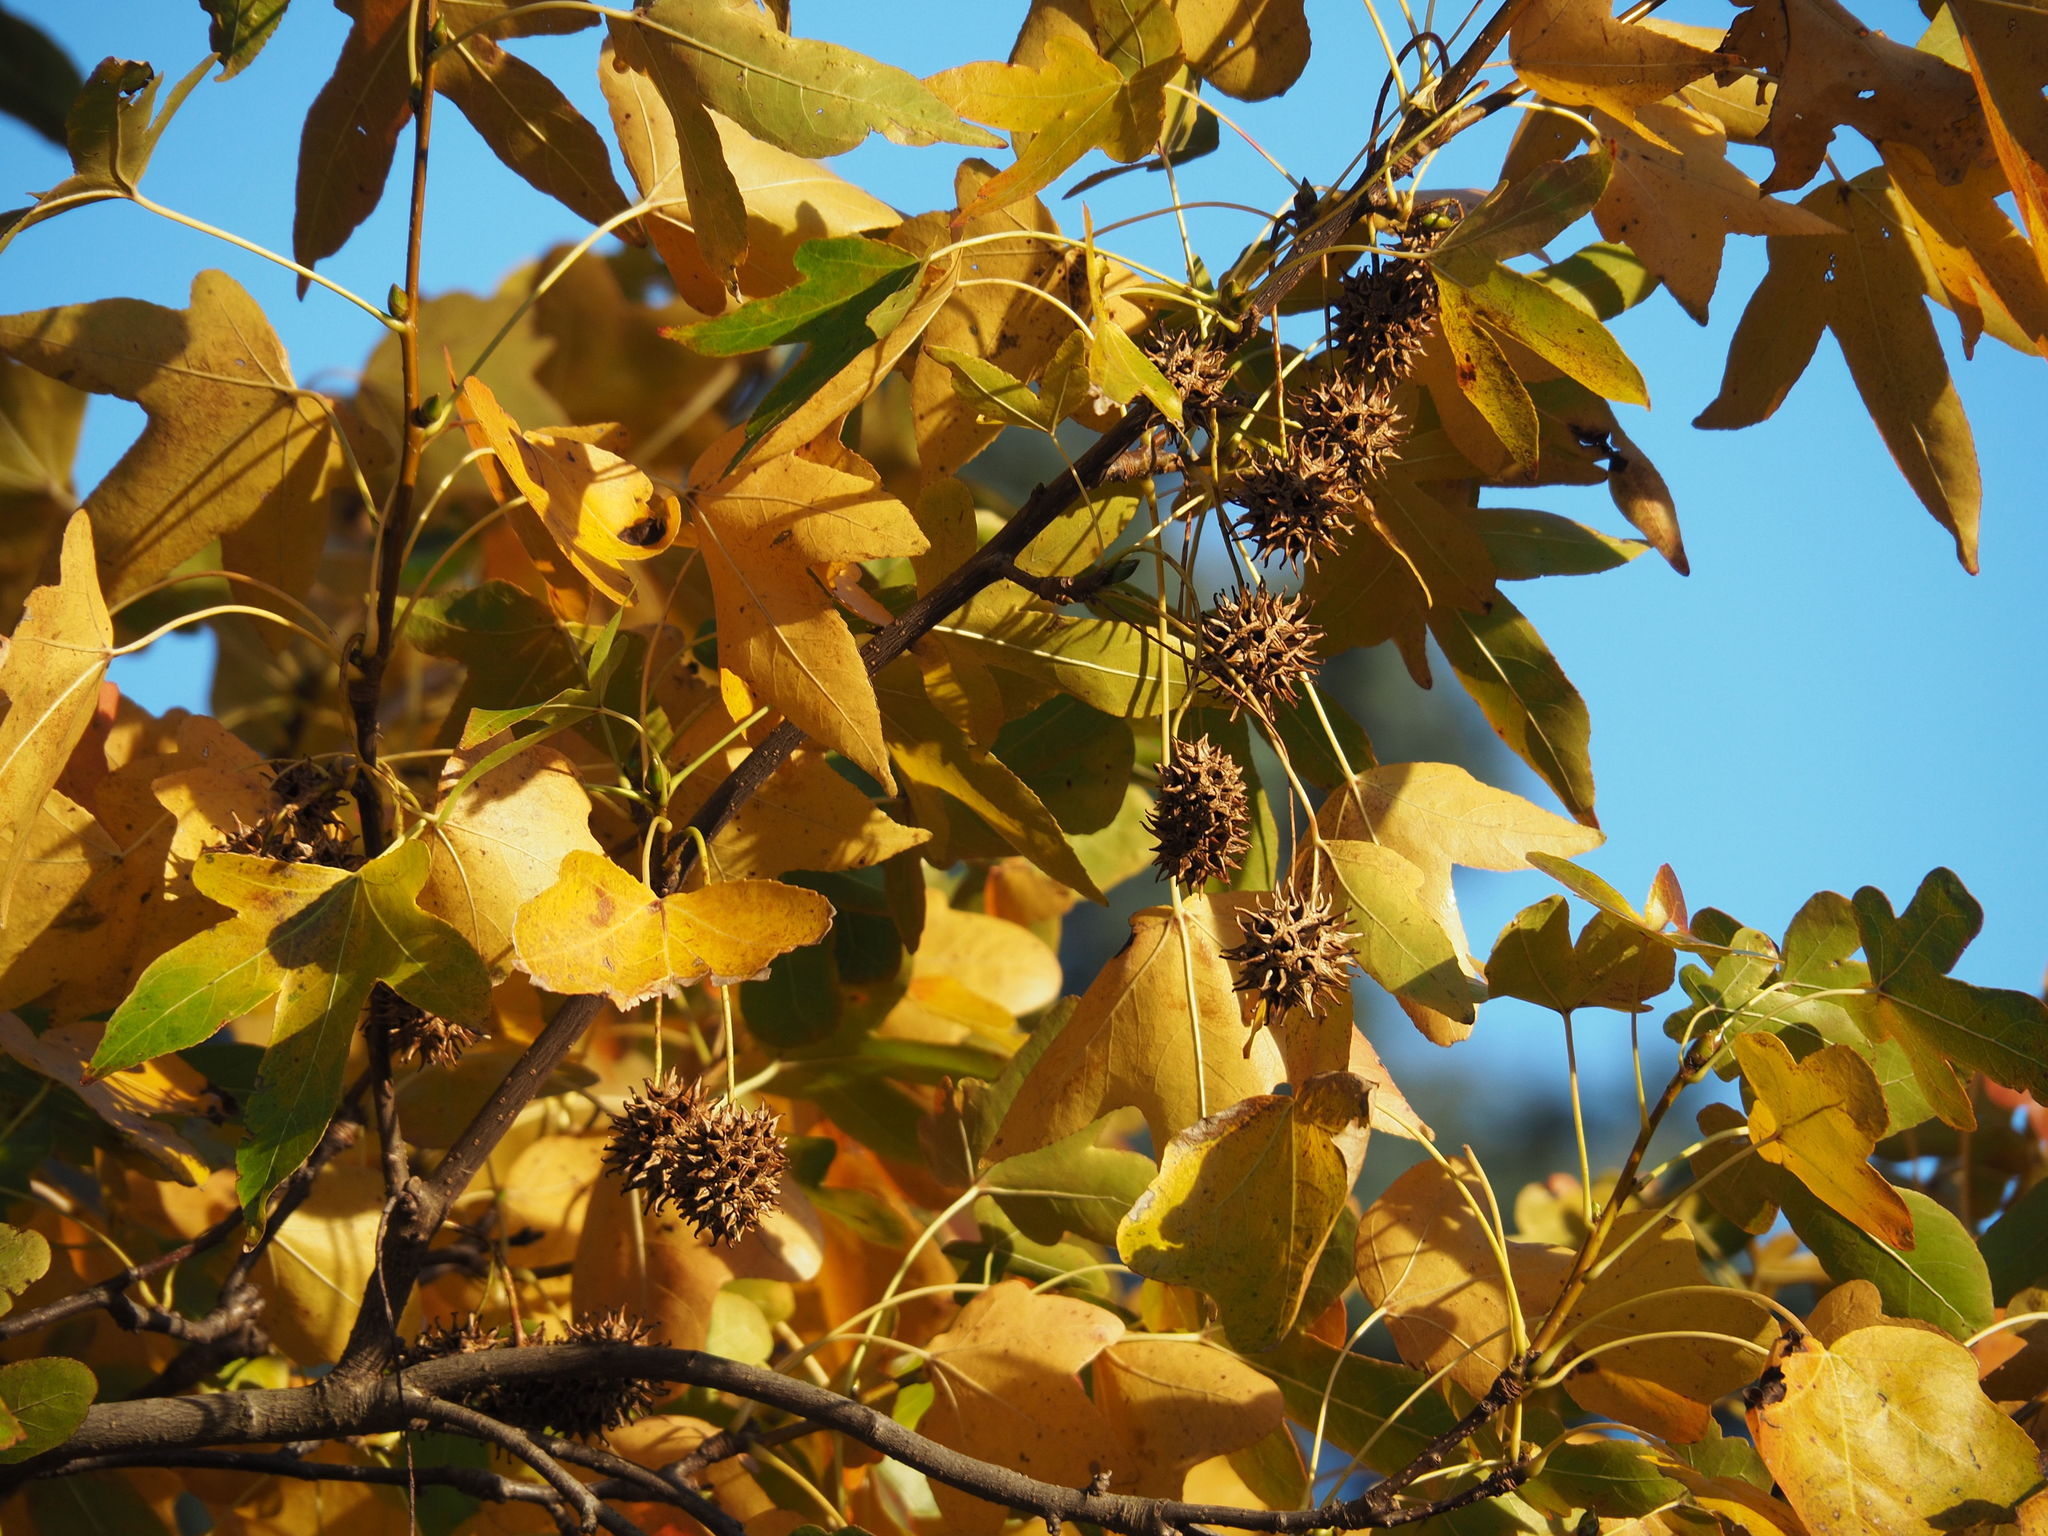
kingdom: Plantae
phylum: Tracheophyta
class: Magnoliopsida
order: Saxifragales
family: Altingiaceae
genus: Liquidambar
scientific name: Liquidambar styraciflua
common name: Sweet gum
